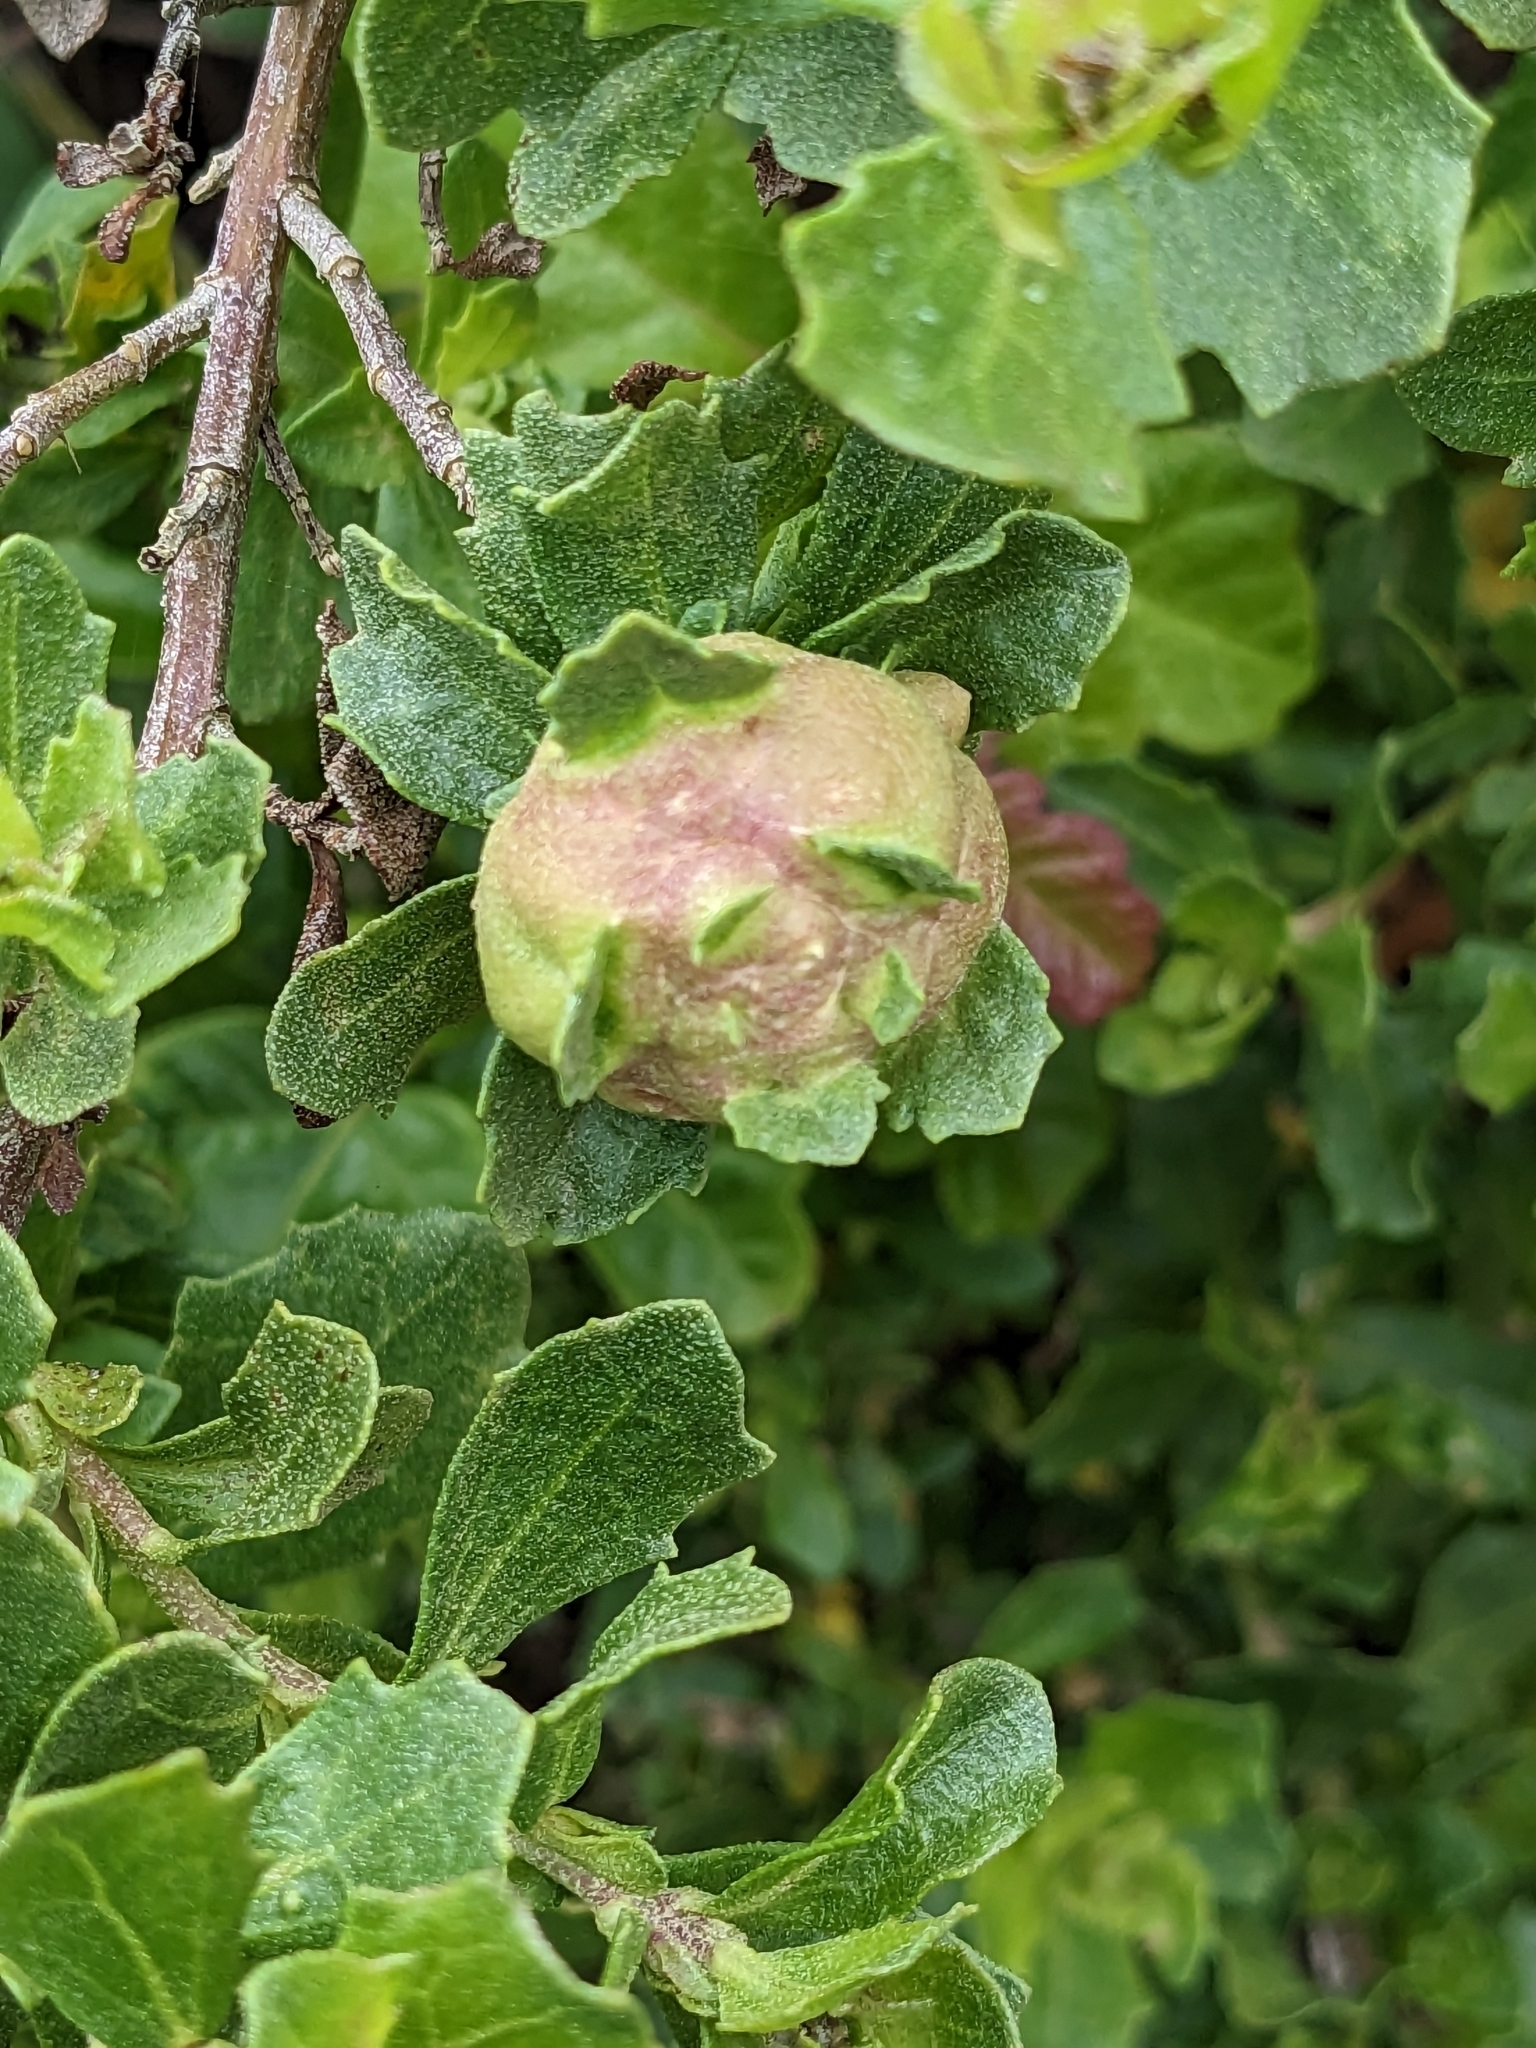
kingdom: Animalia
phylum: Arthropoda
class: Insecta
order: Diptera
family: Cecidomyiidae
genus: Rhopalomyia
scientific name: Rhopalomyia californica
